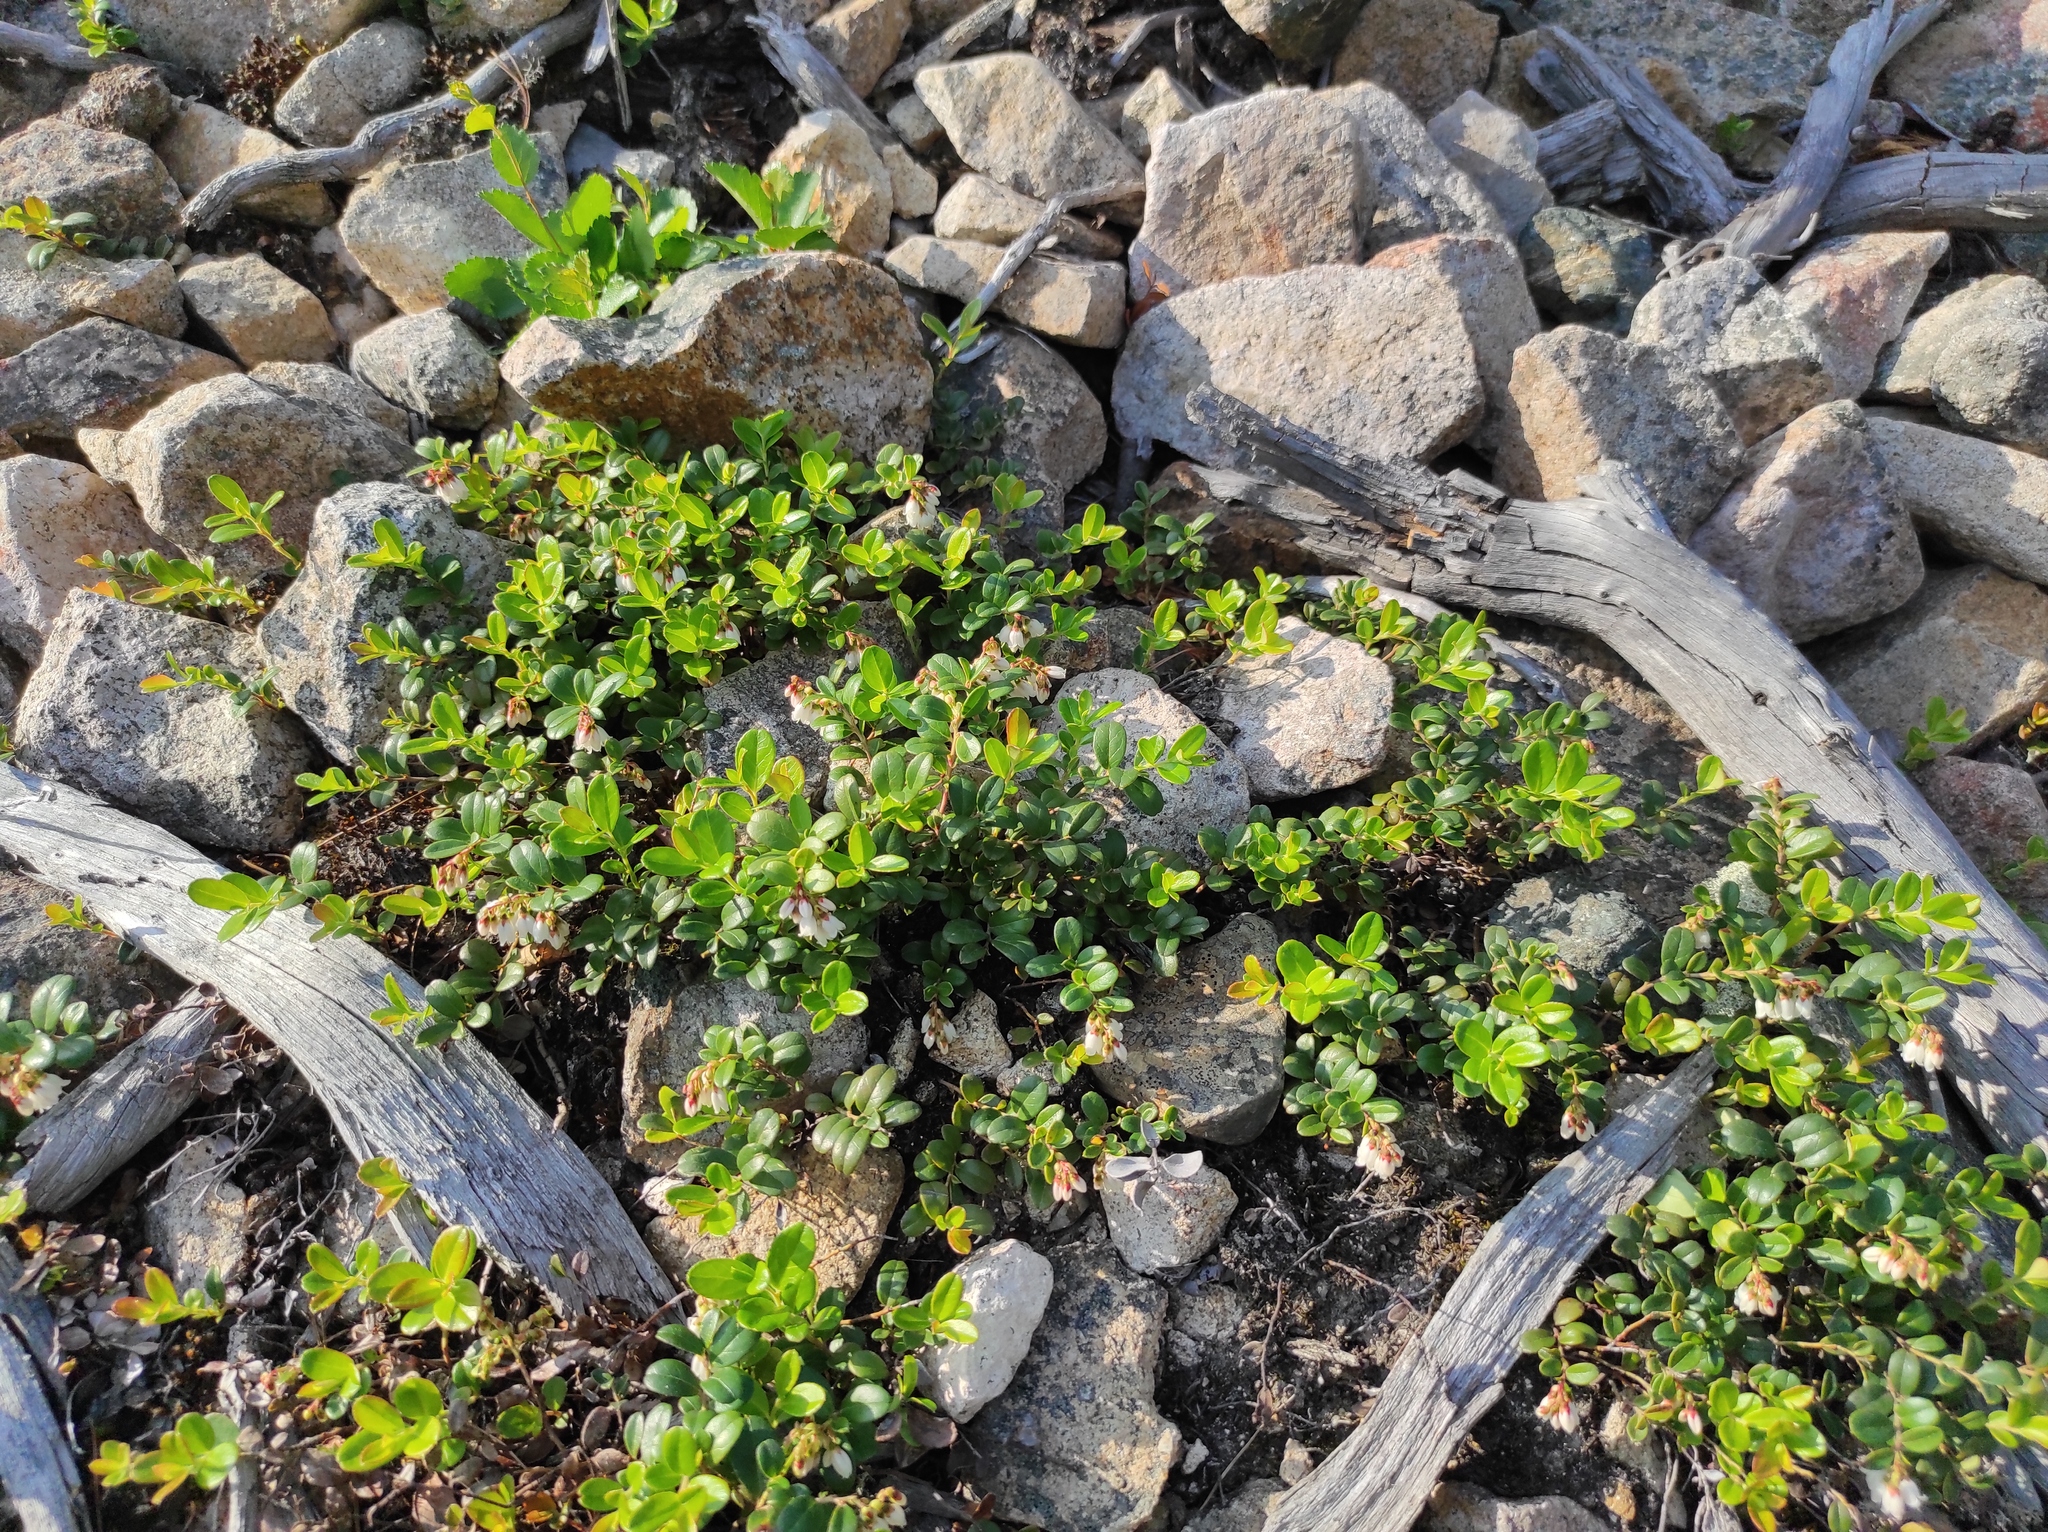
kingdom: Plantae
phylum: Tracheophyta
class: Magnoliopsida
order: Ericales
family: Ericaceae
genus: Vaccinium
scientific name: Vaccinium vitis-idaea
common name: Cowberry
